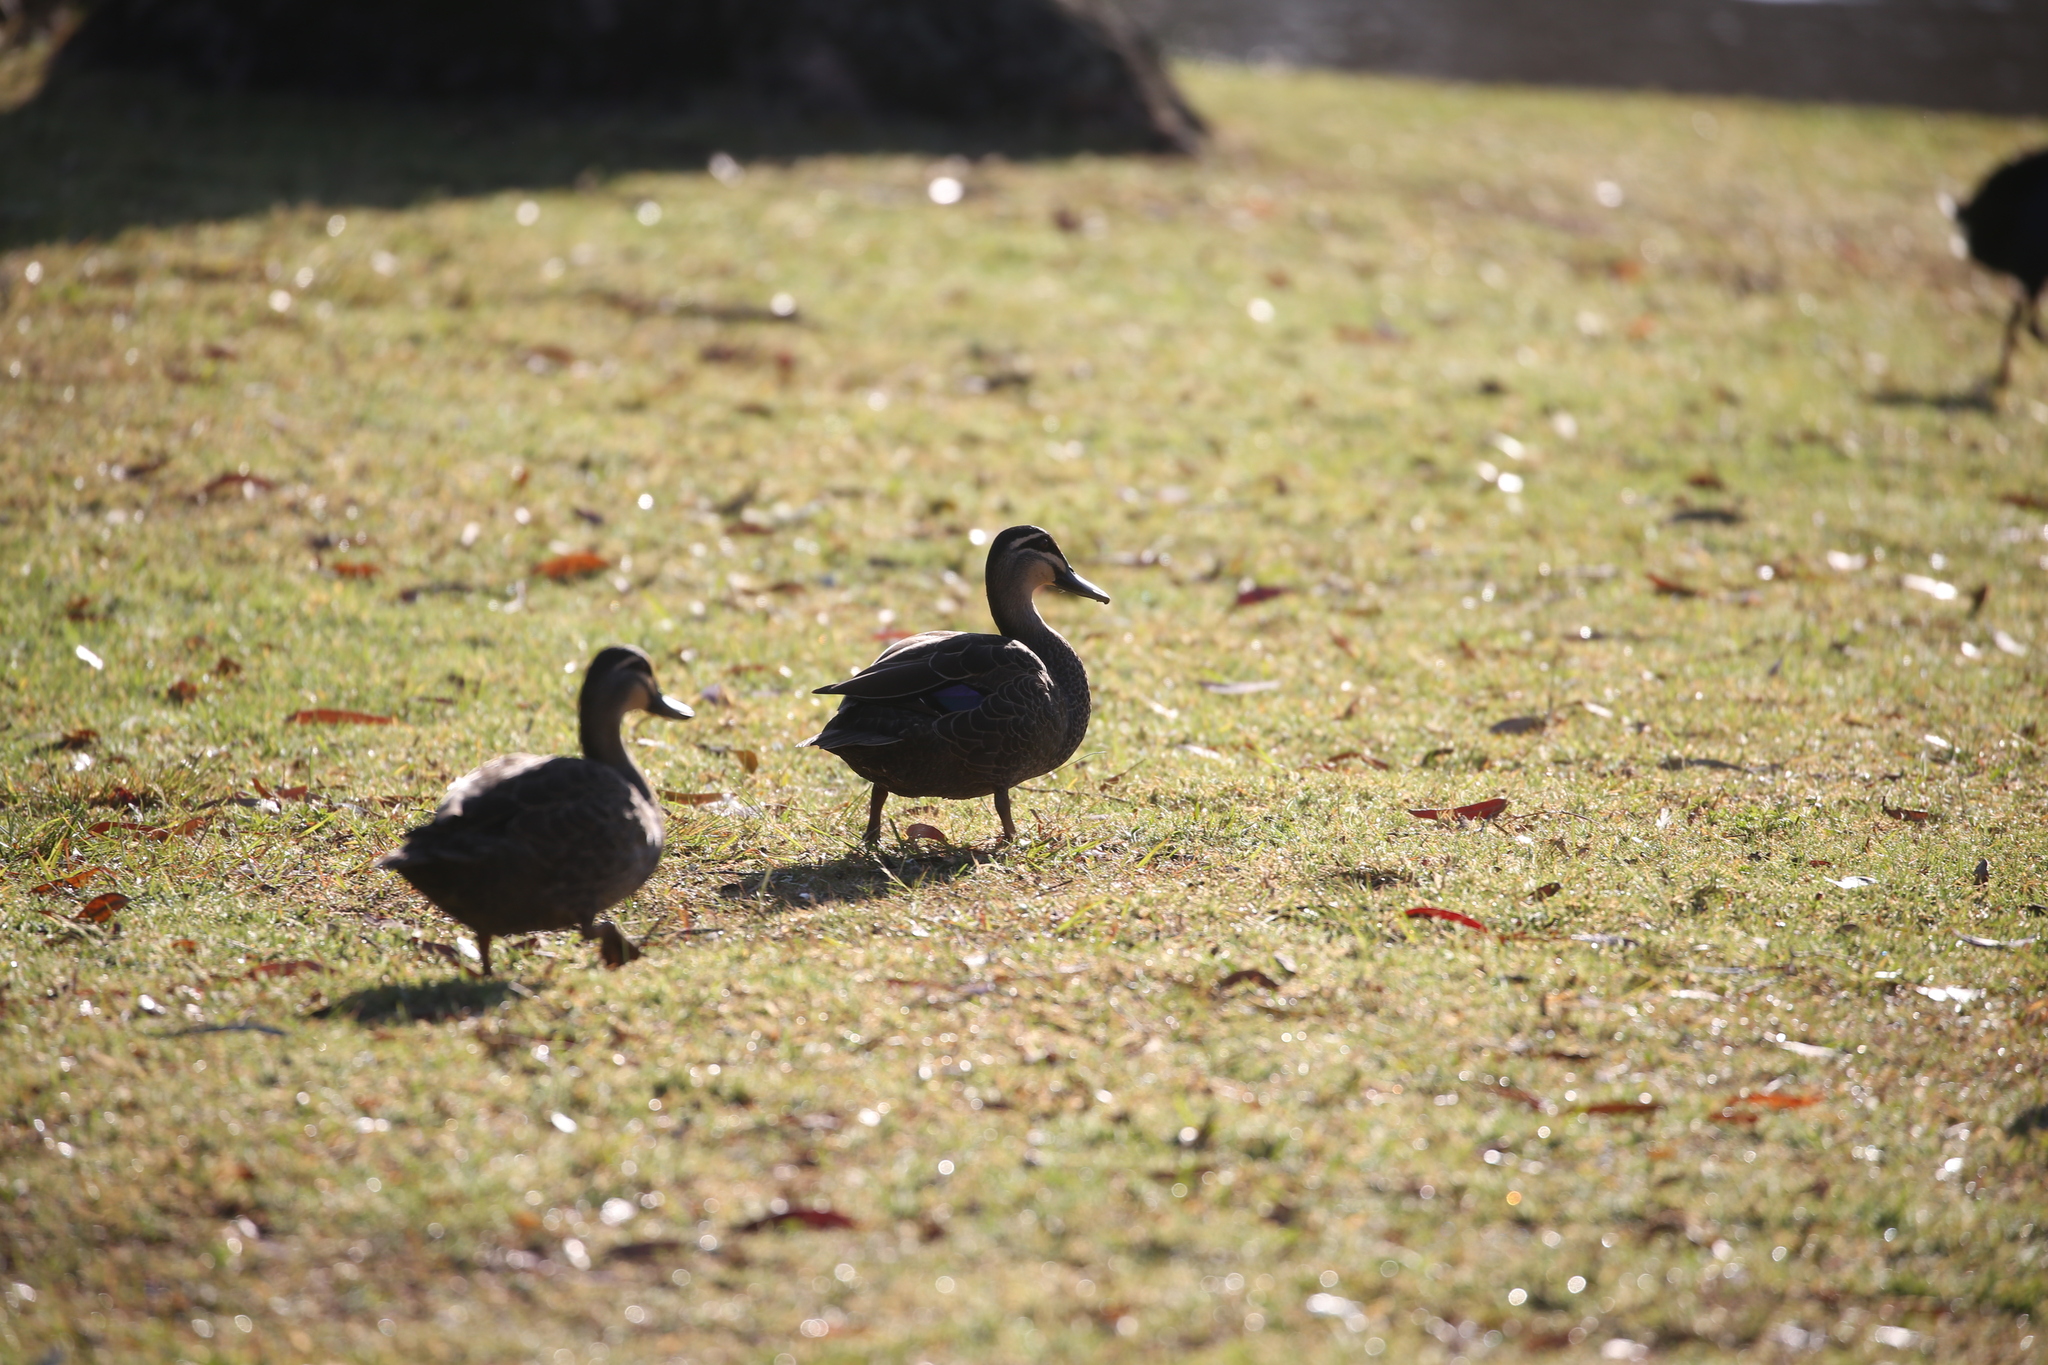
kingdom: Animalia
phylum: Chordata
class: Aves
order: Anseriformes
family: Anatidae
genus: Anas
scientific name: Anas superciliosa
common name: Pacific black duck
